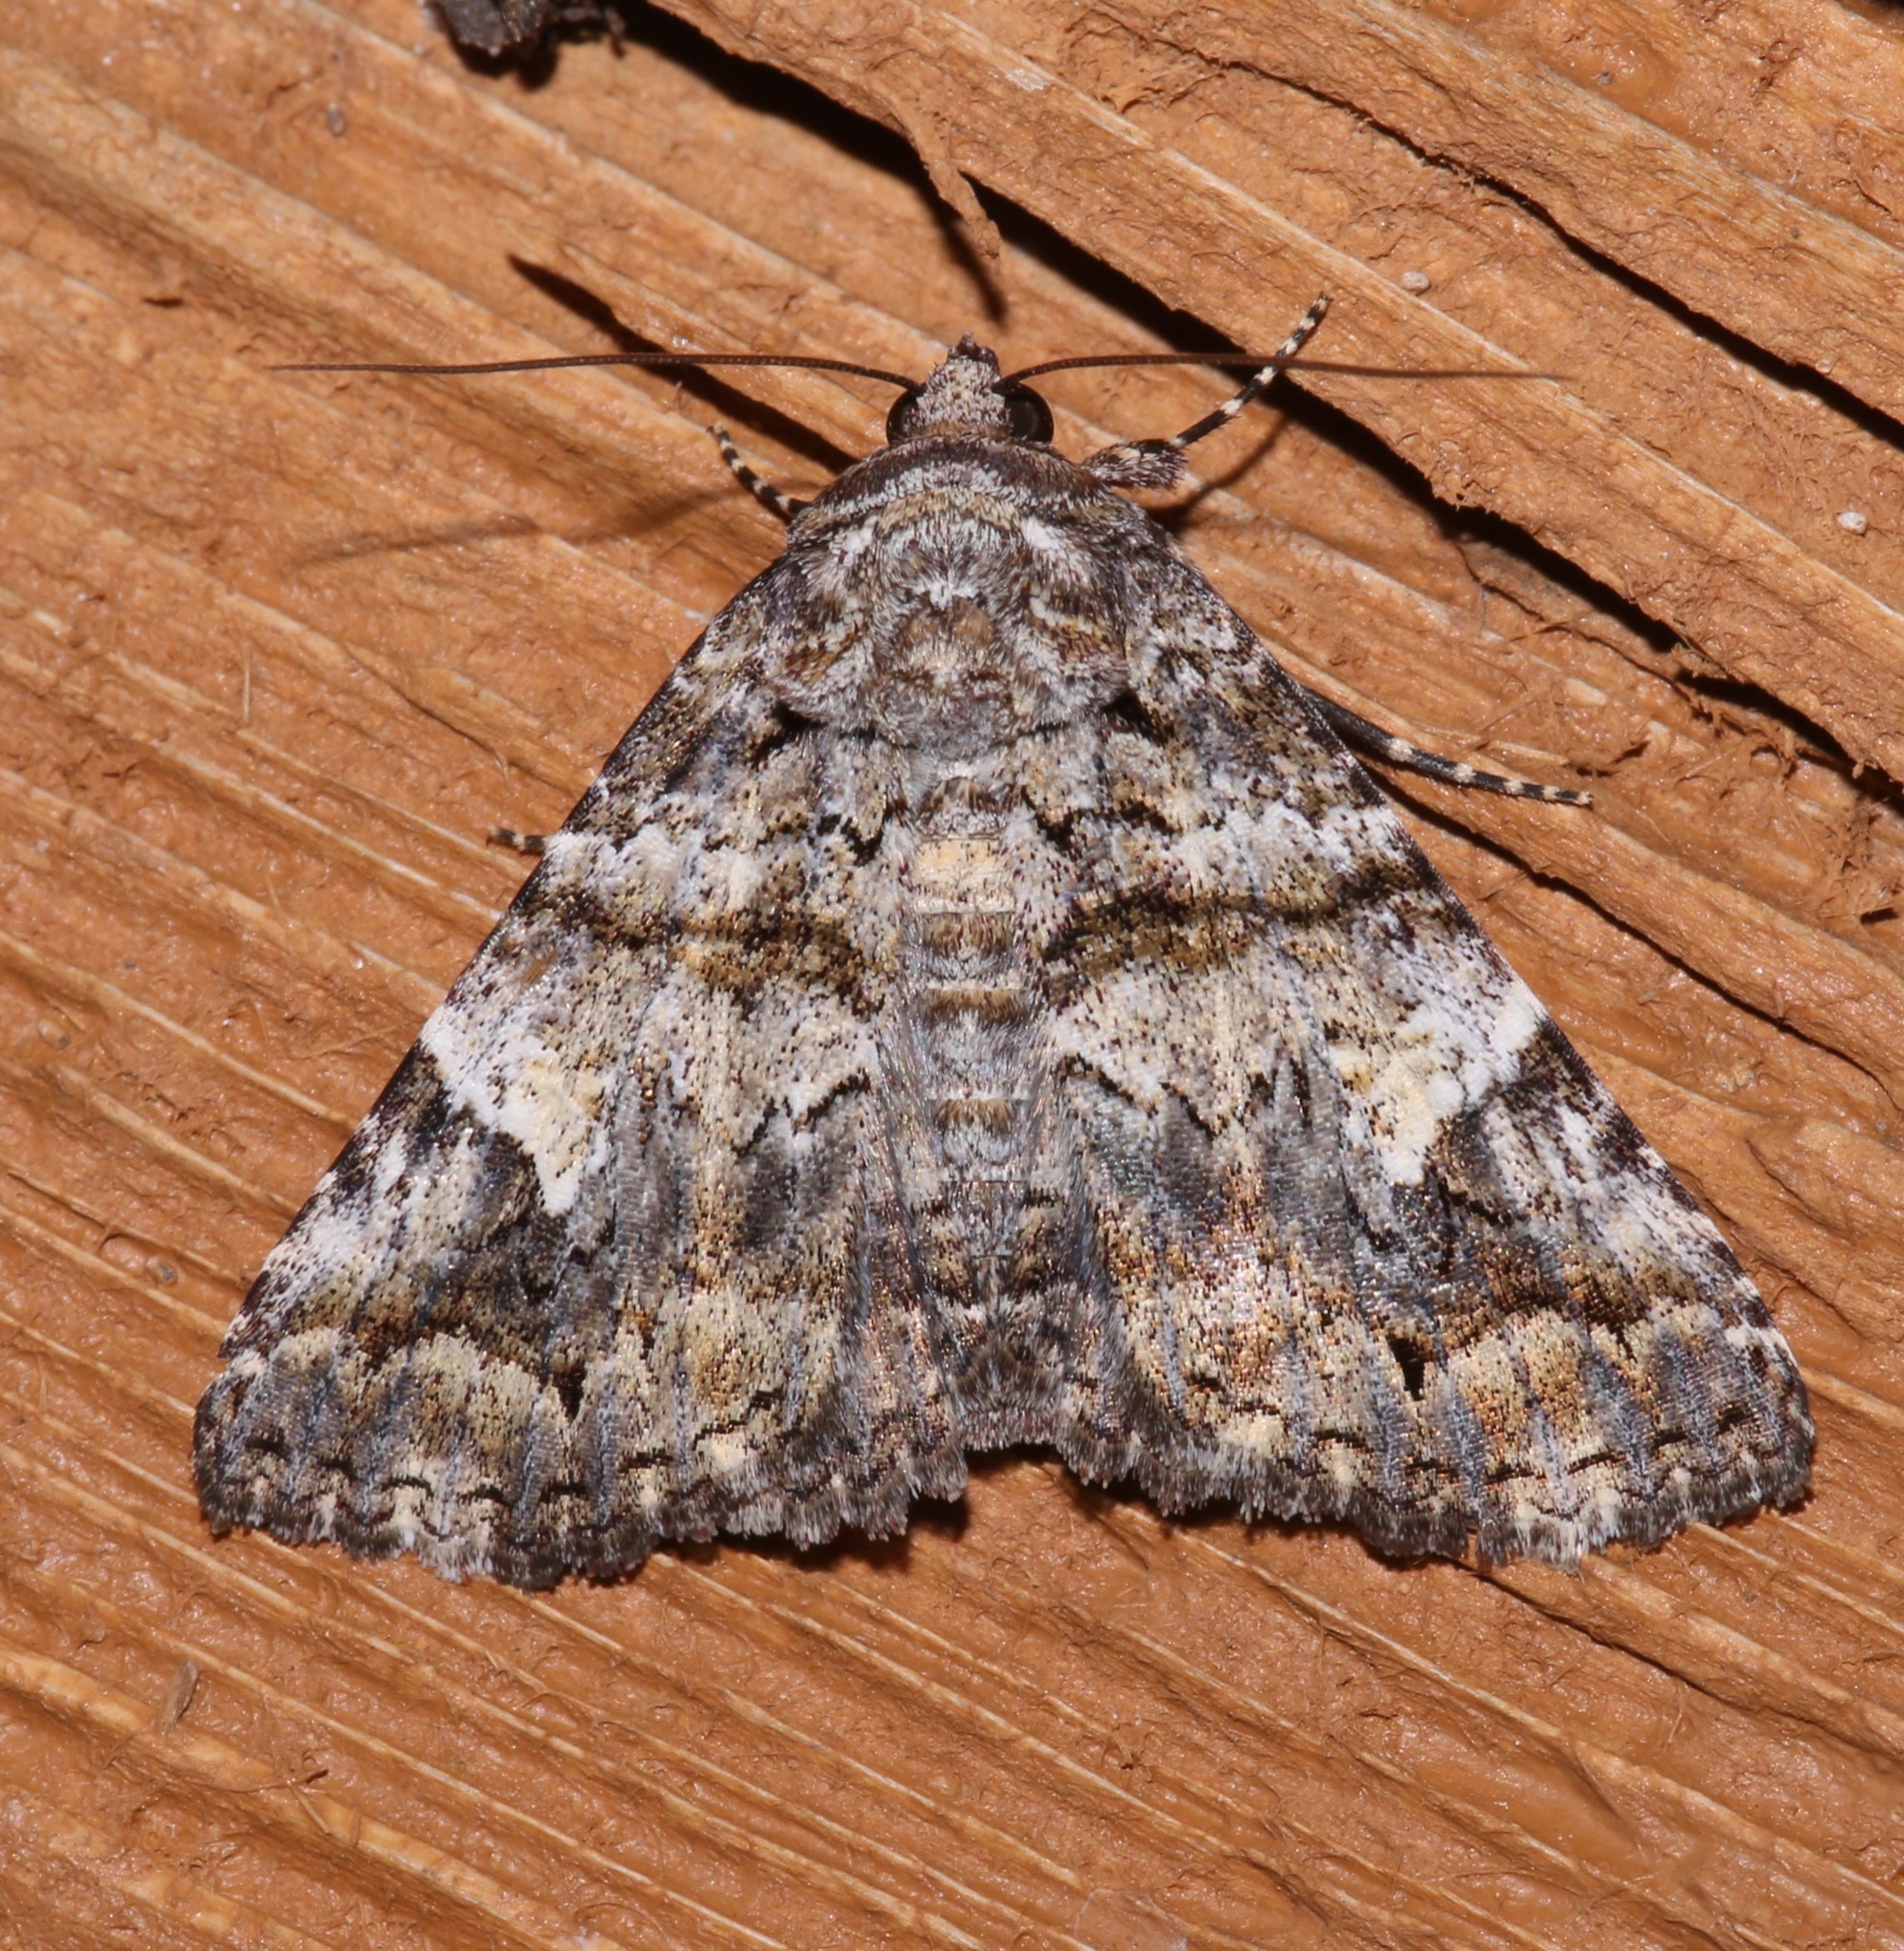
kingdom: Animalia
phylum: Arthropoda
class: Insecta
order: Lepidoptera
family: Erebidae
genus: Metria
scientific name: Metria amella
